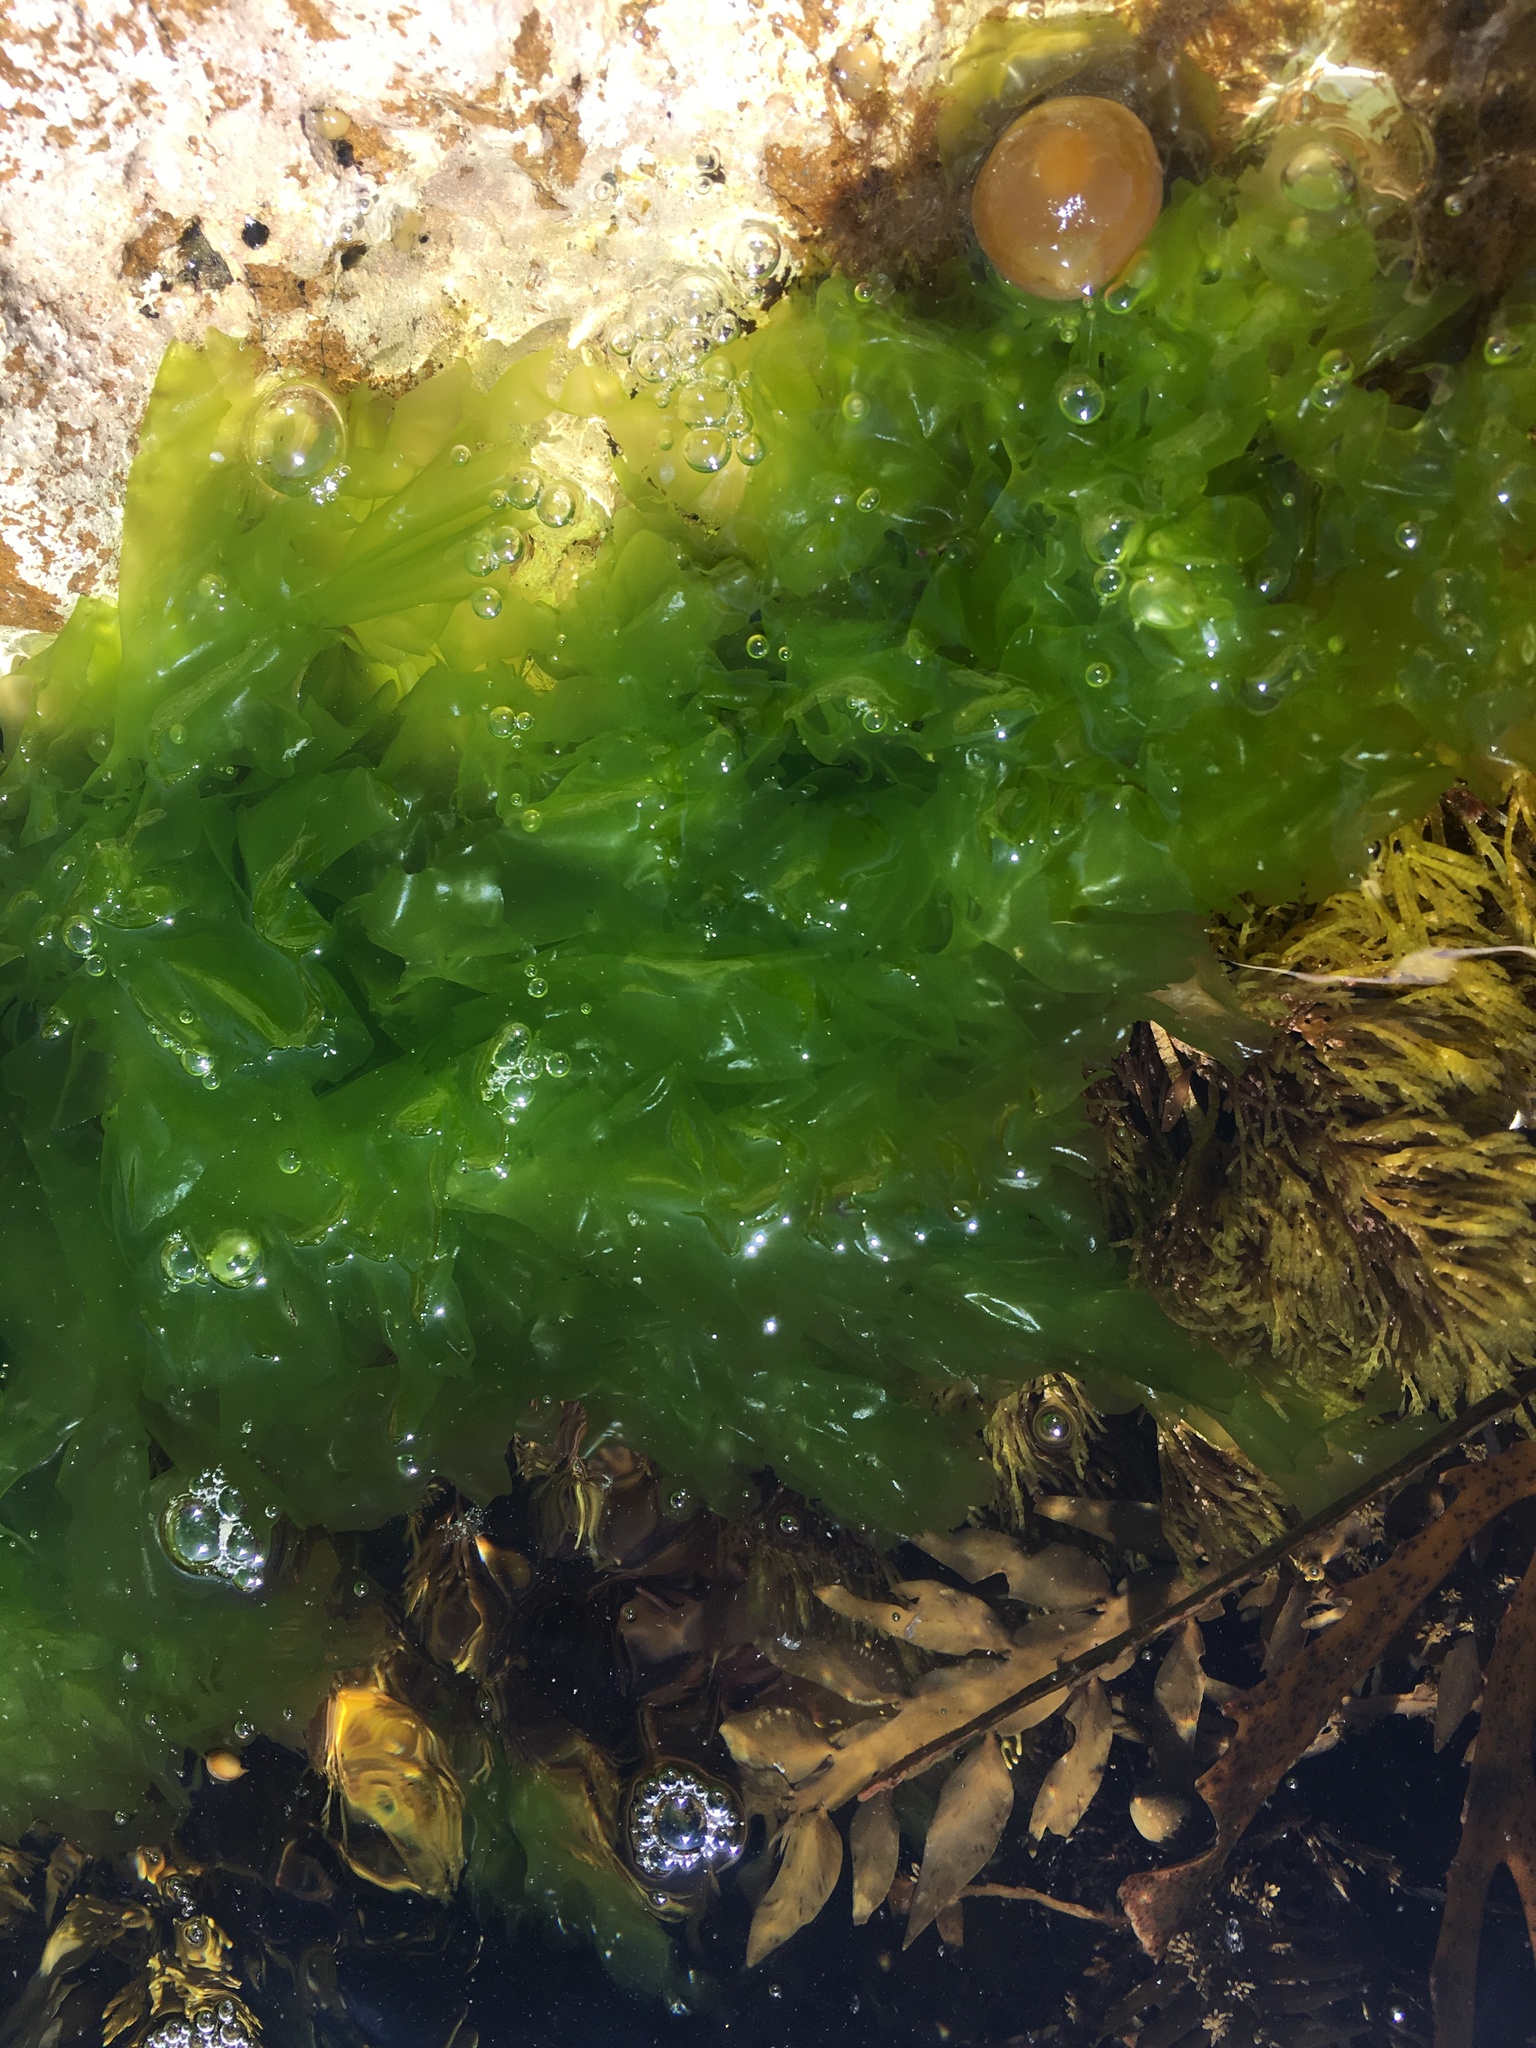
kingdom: Plantae
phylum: Chlorophyta
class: Ulvophyceae
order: Ulvales
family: Ulvaceae
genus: Ulva
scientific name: Ulva
